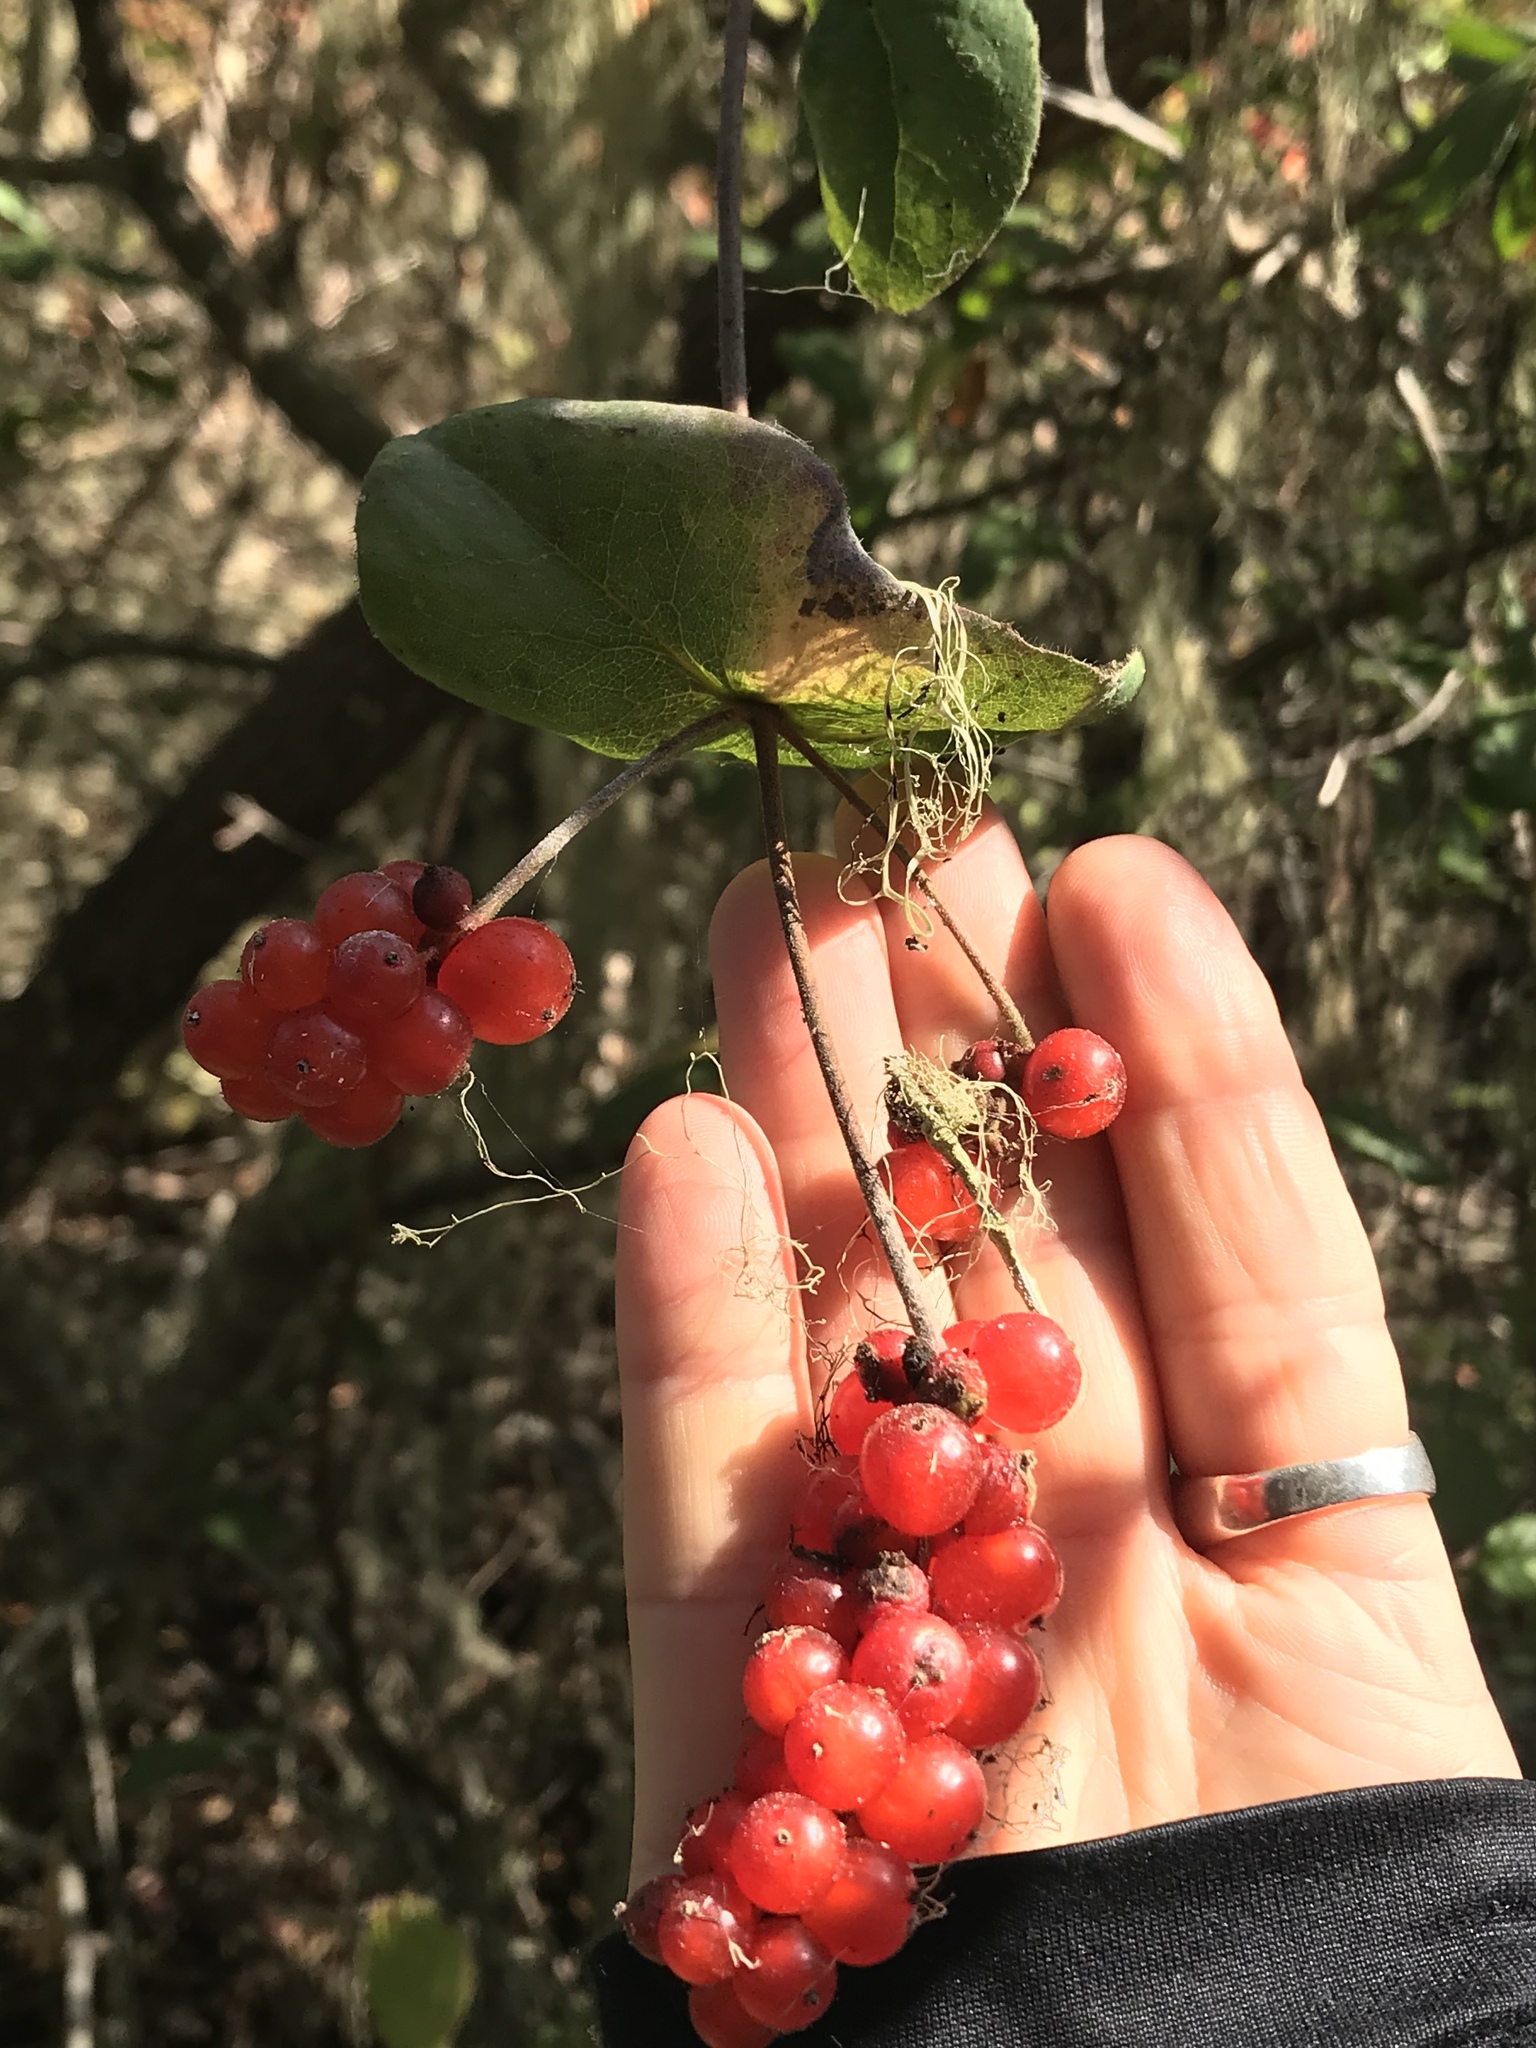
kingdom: Plantae
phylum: Tracheophyta
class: Magnoliopsida
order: Dipsacales
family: Caprifoliaceae
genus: Lonicera
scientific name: Lonicera hispidula
